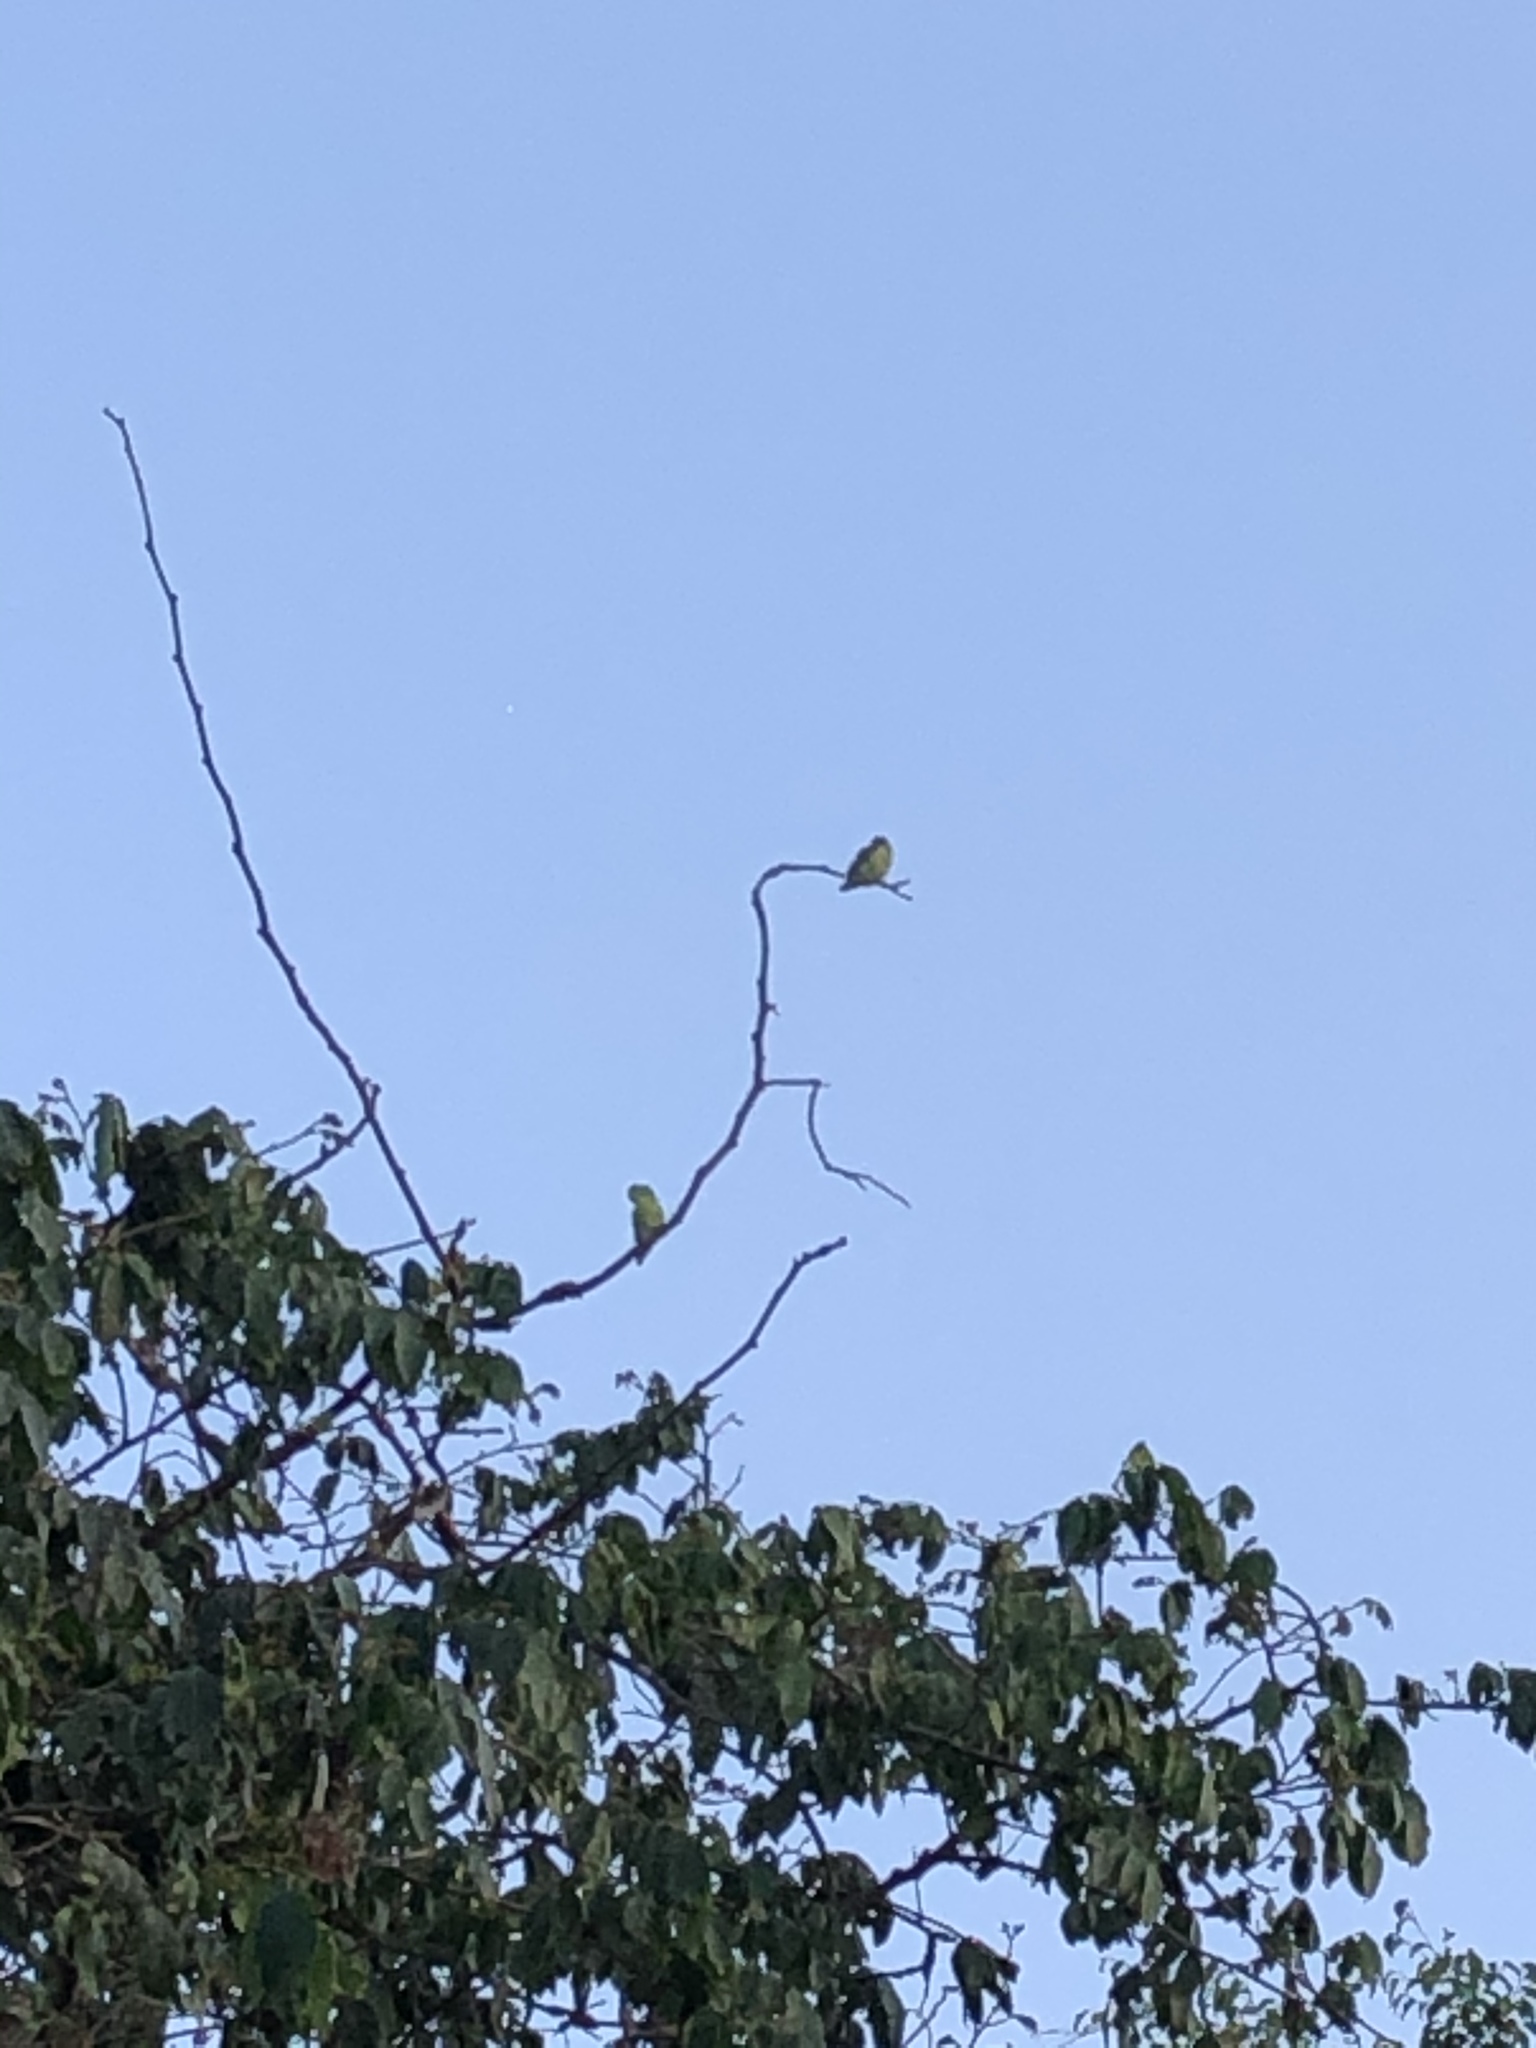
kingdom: Animalia
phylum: Chordata
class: Aves
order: Psittaciformes
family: Psittacidae
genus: Forpus
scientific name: Forpus coelestis
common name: Pacific parrotlet
